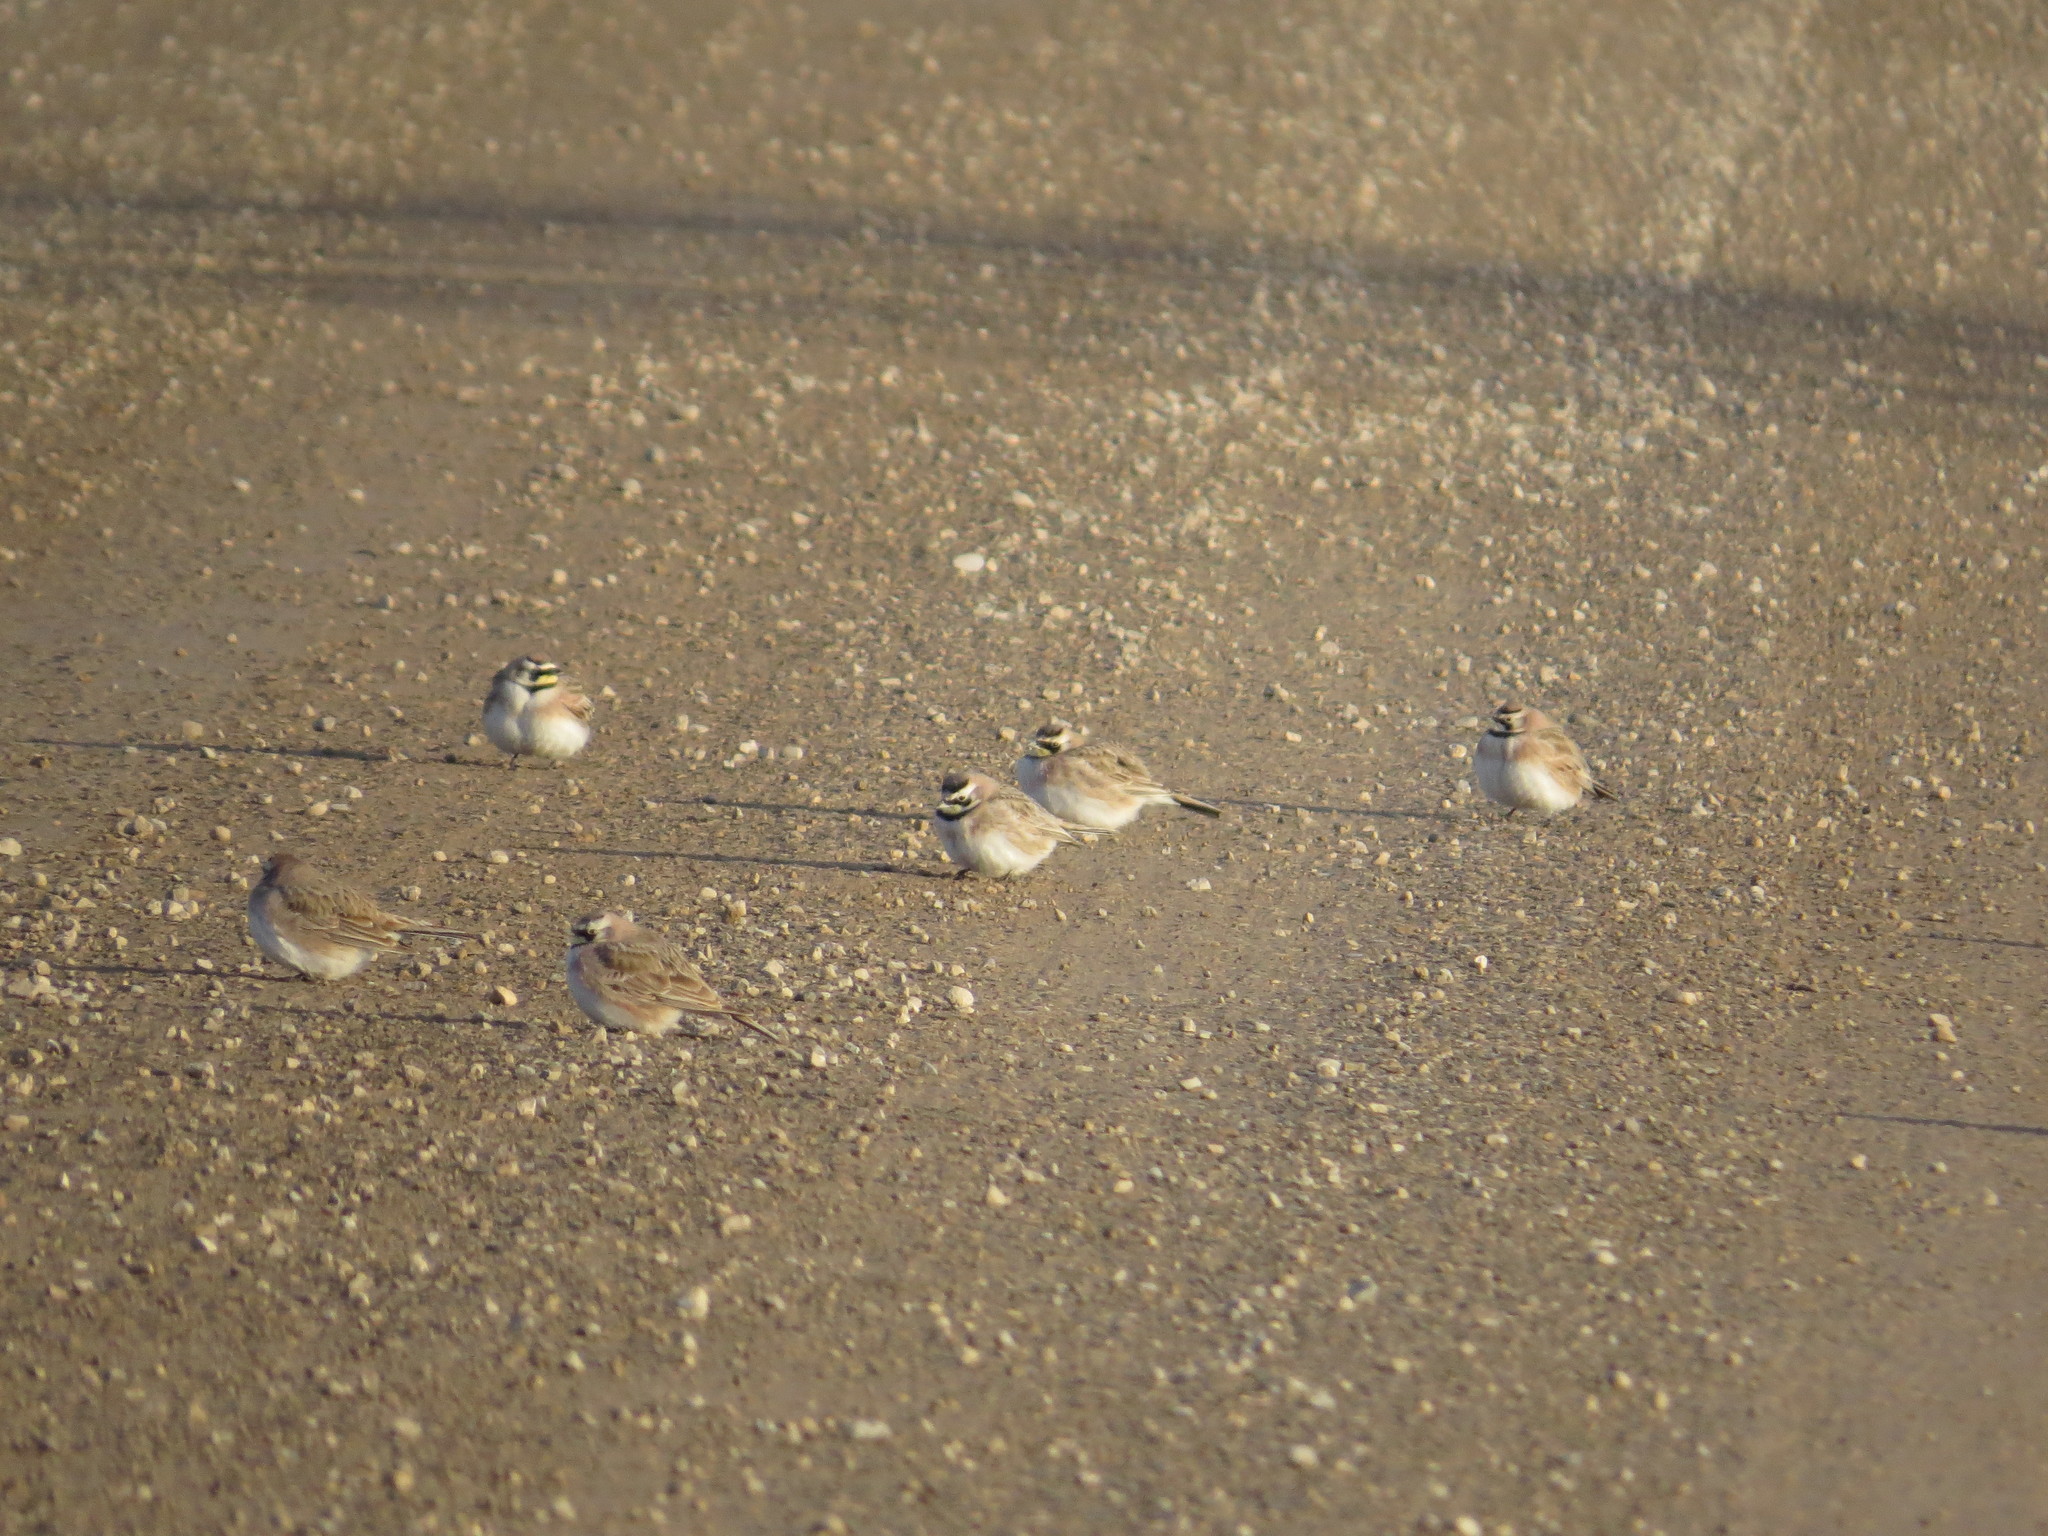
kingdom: Animalia
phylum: Chordata
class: Aves
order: Passeriformes
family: Alaudidae
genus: Eremophila
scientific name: Eremophila alpestris
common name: Horned lark
